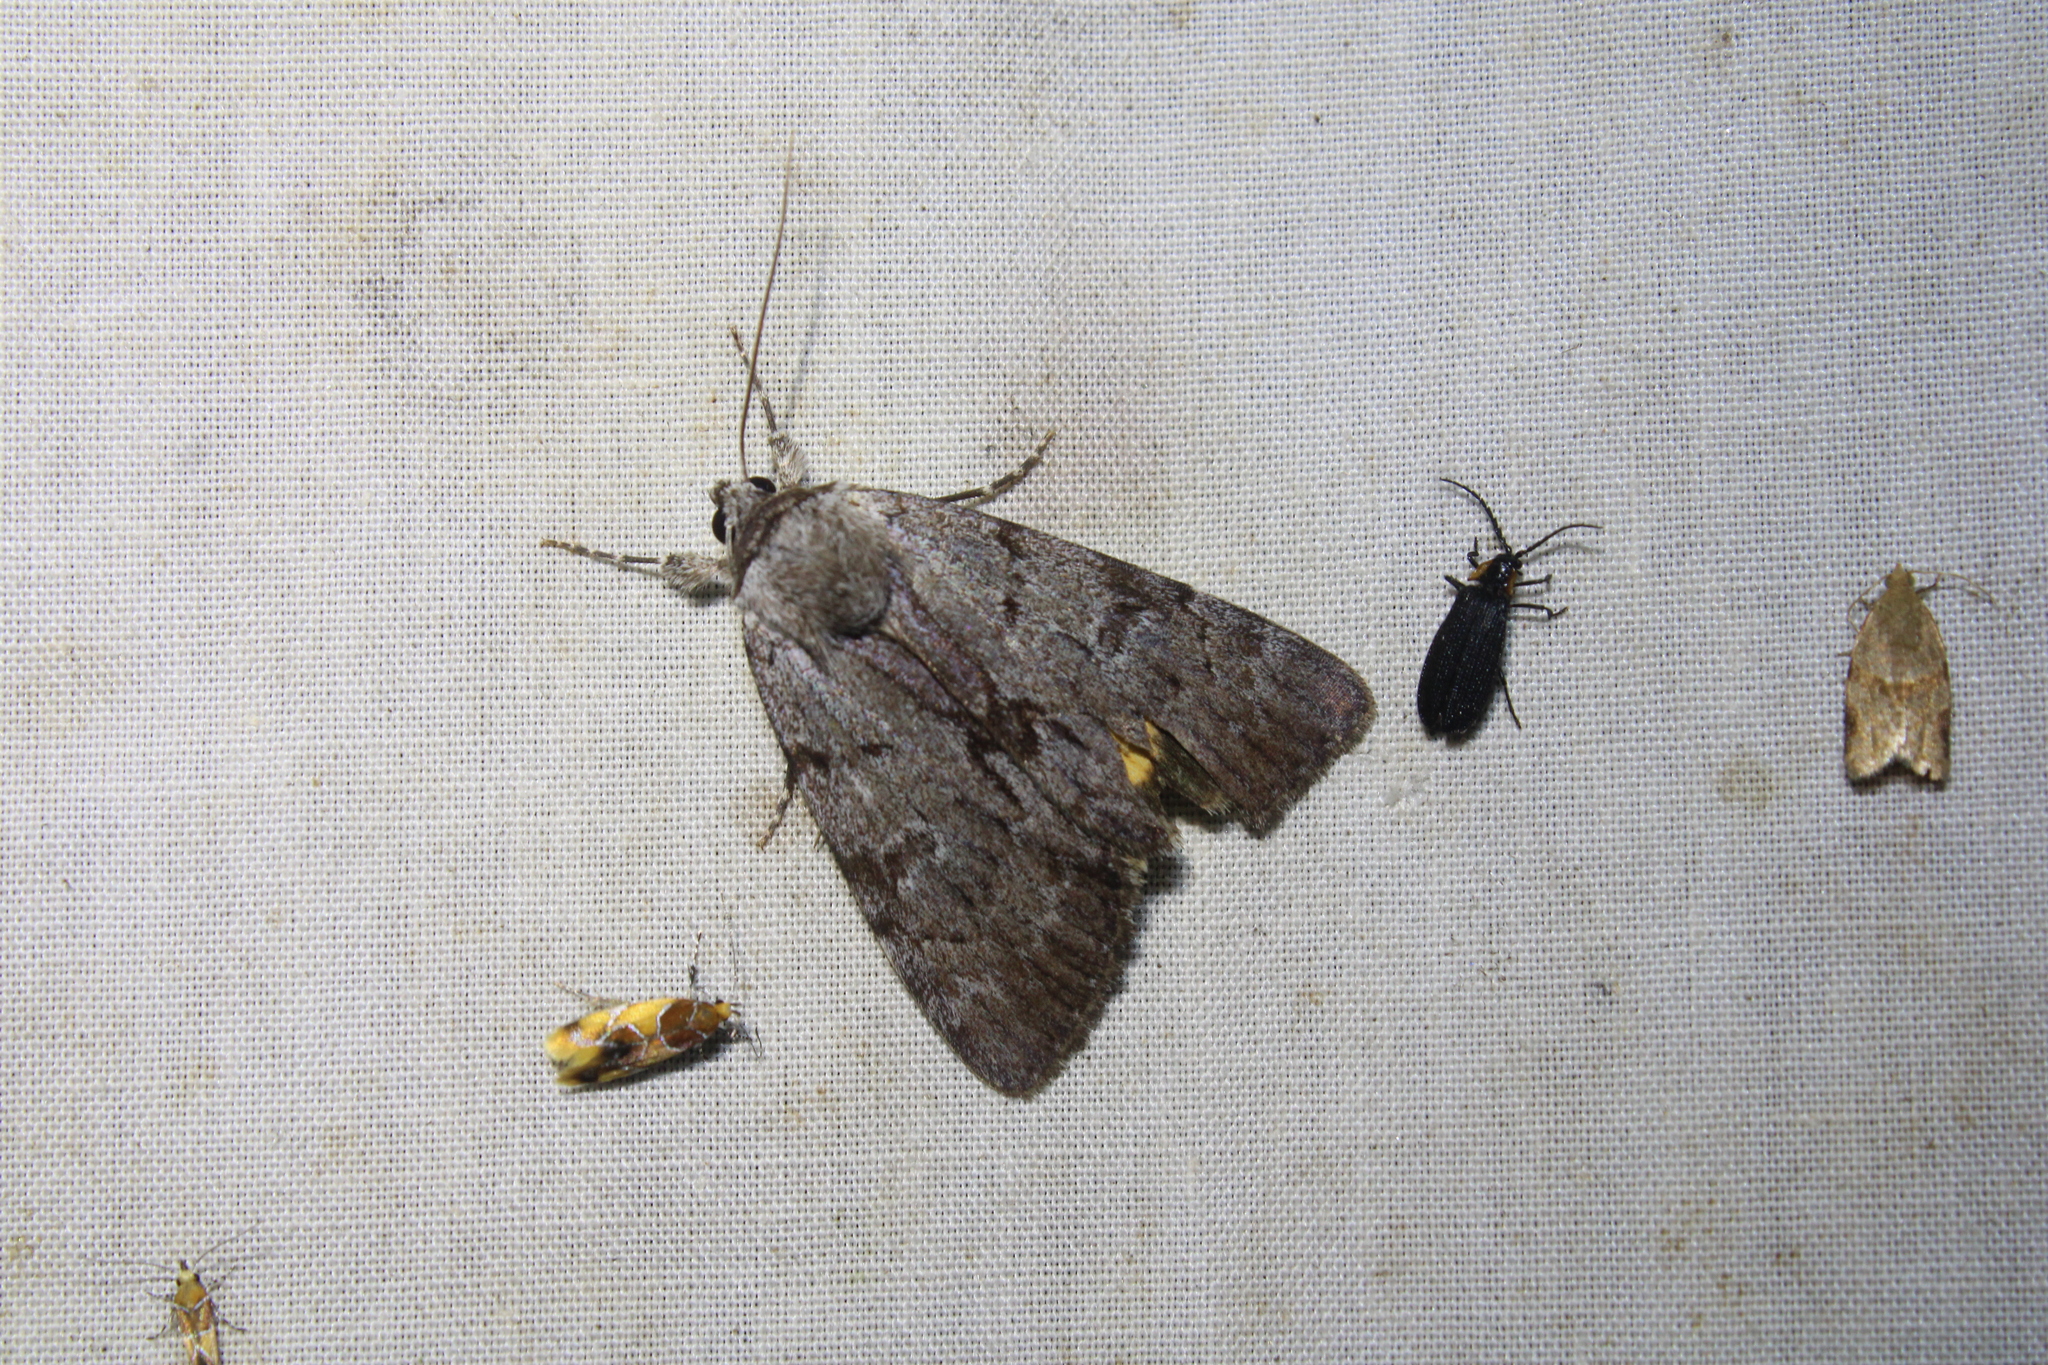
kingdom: Animalia
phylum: Arthropoda
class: Insecta
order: Lepidoptera
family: Erebidae
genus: Catocala
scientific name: Catocala sordida
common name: Sordid underwing
